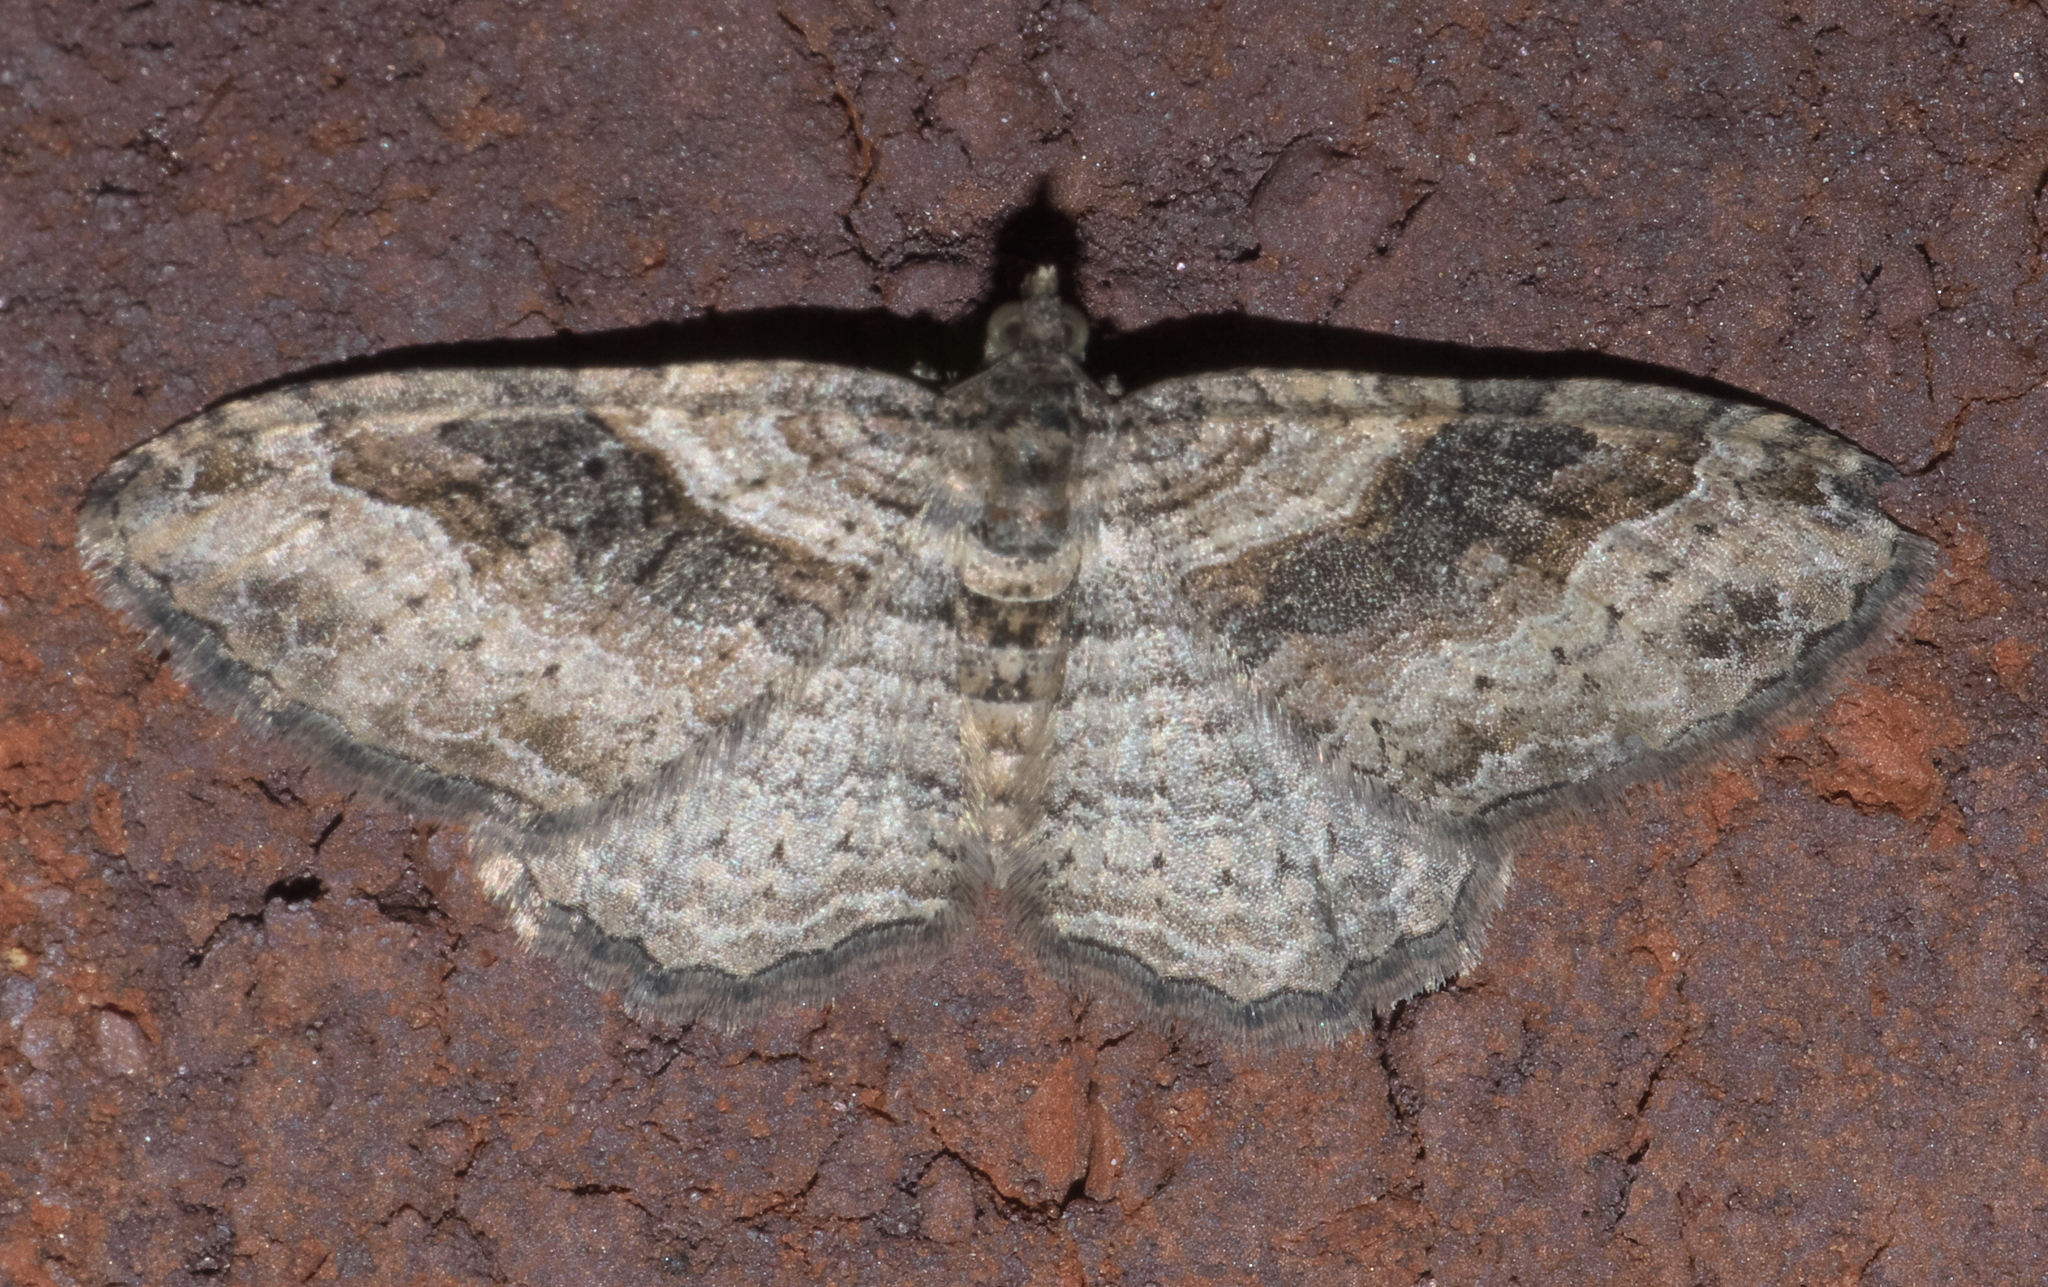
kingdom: Animalia
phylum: Arthropoda
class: Insecta
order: Lepidoptera
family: Geometridae
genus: Costaconvexa
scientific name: Costaconvexa centrostrigaria
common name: Bent-line carpet
